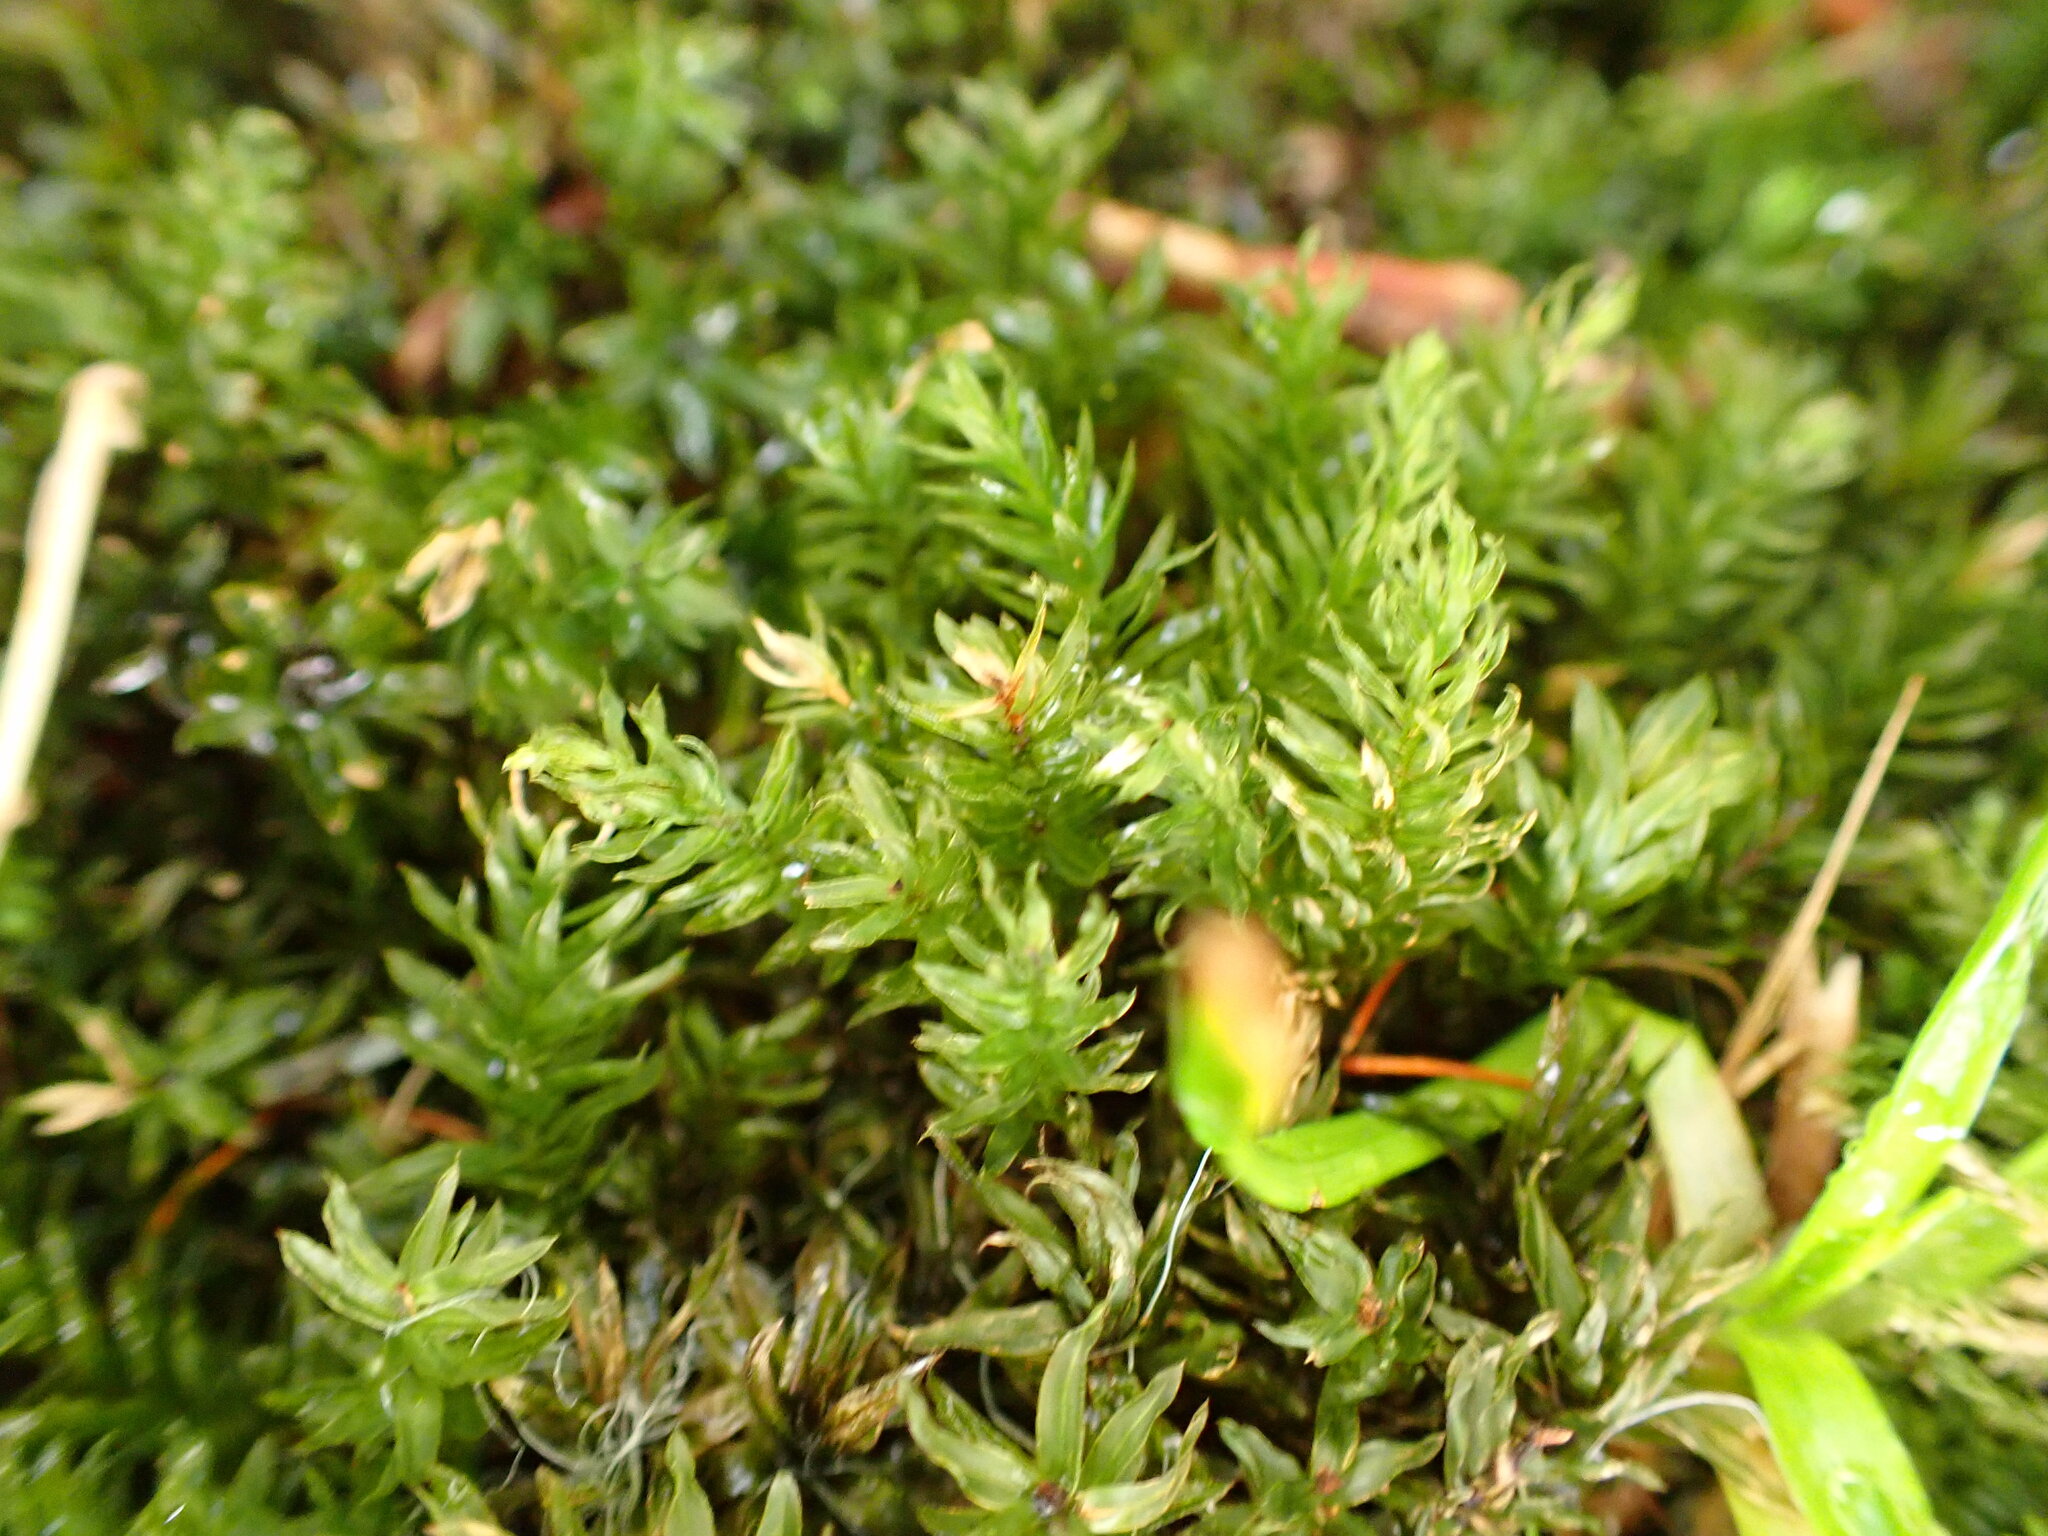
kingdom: Plantae
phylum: Bryophyta
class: Bryopsida
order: Bryales
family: Mniaceae
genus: Mnium
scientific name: Mnium hornum
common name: Swan's-neck leafy moss
